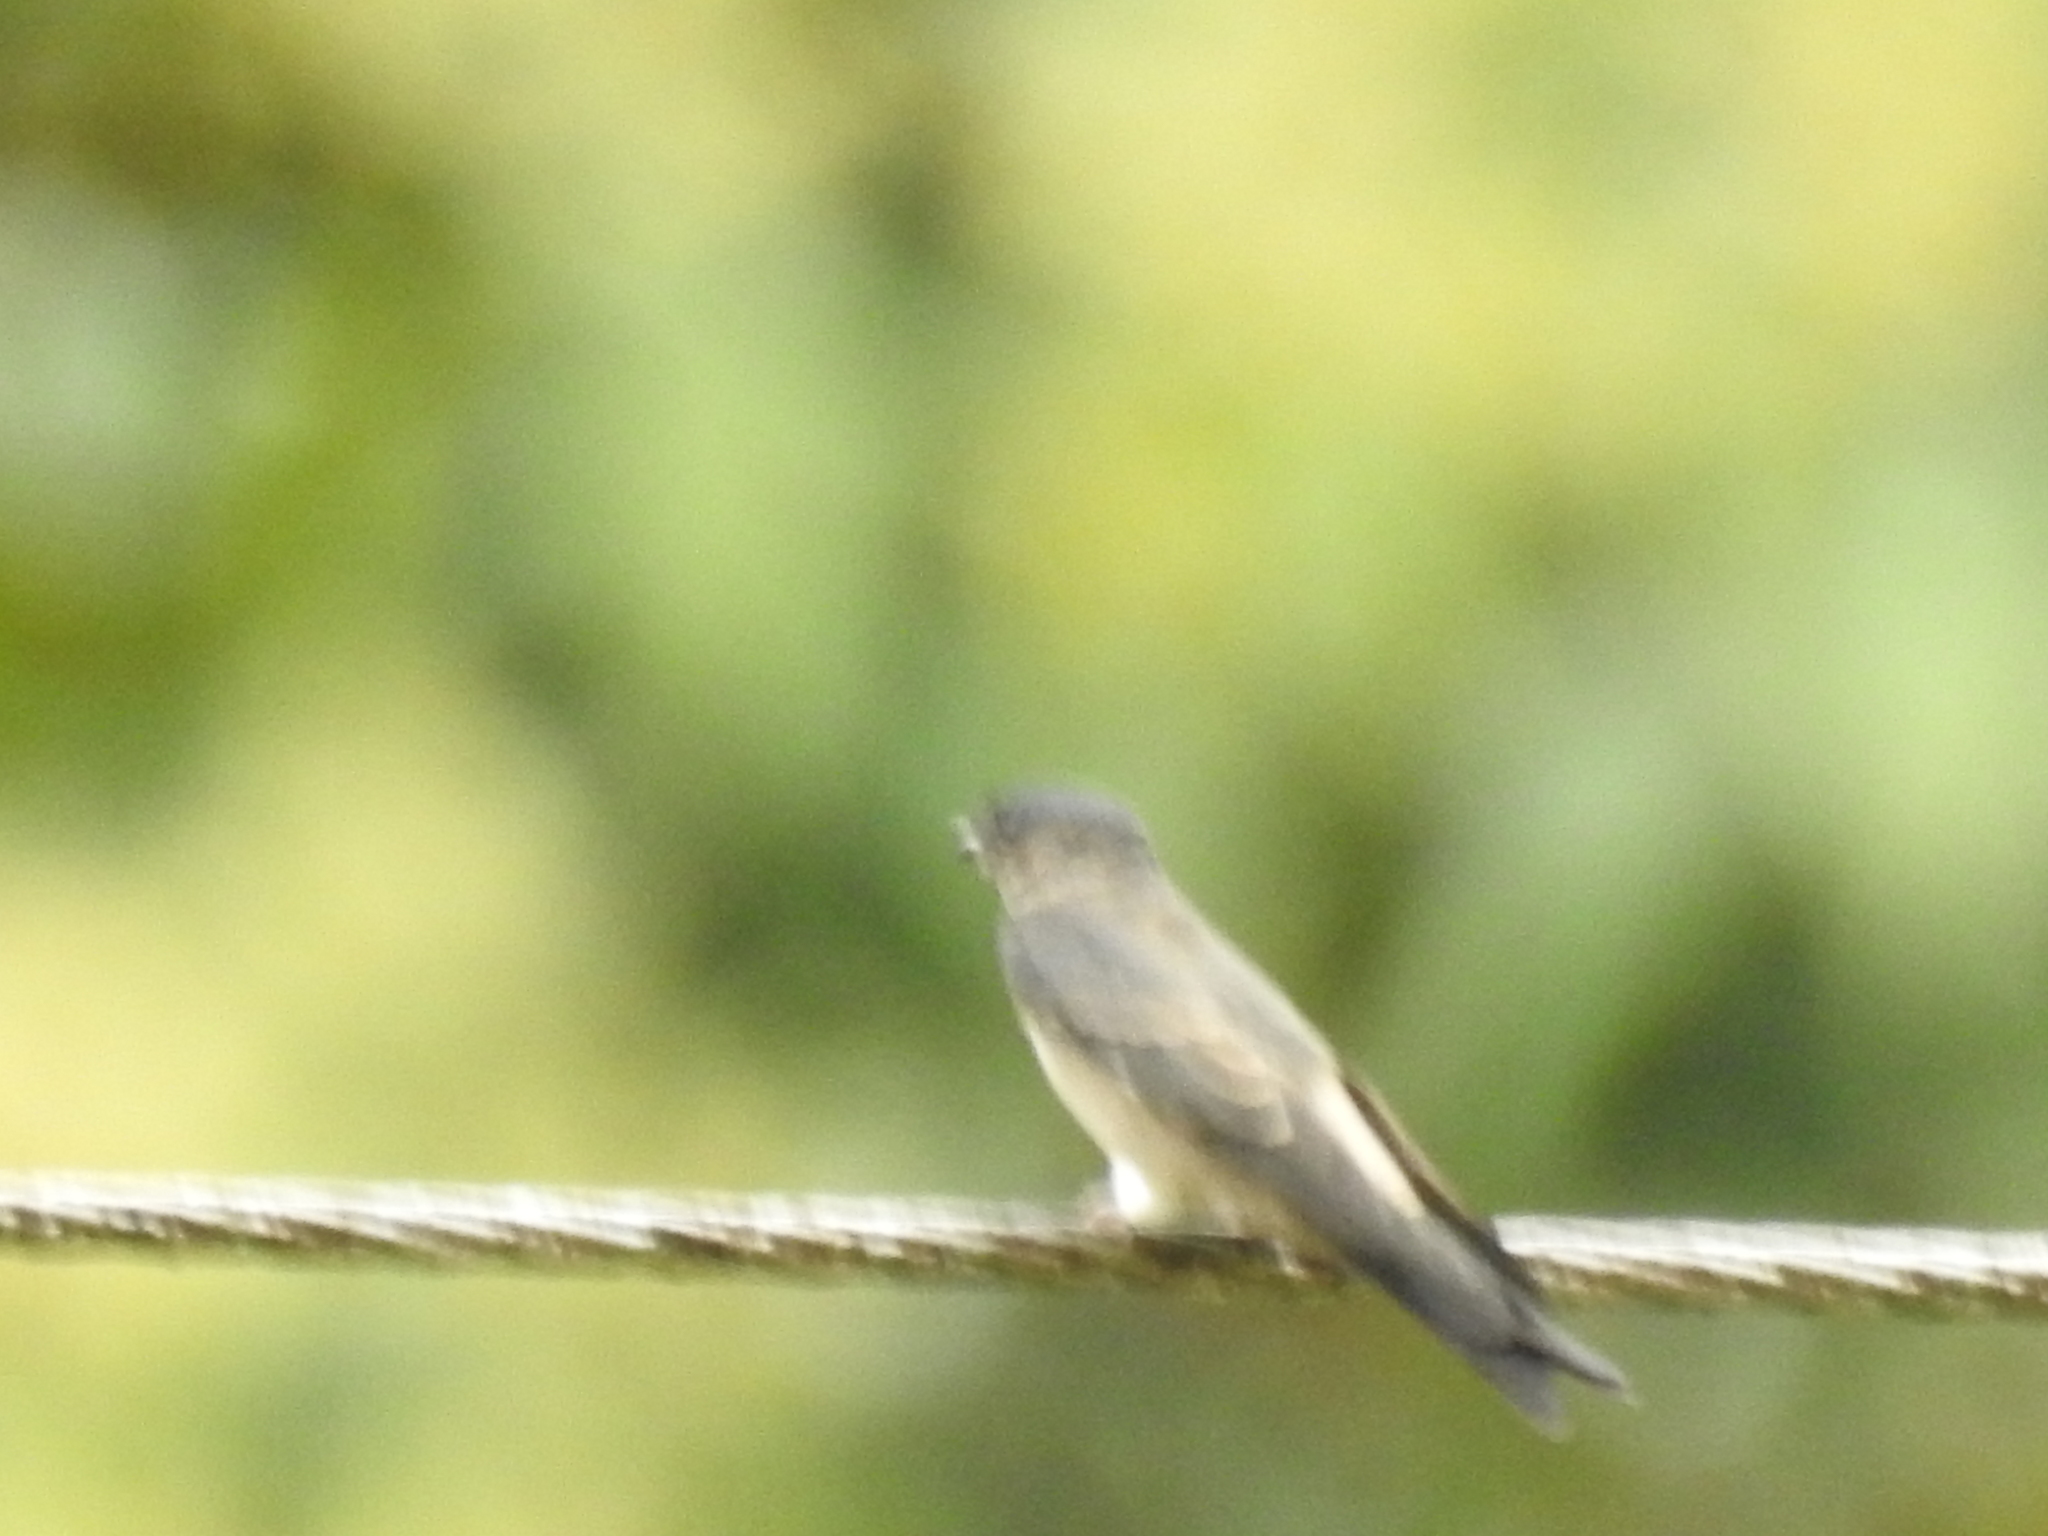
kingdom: Animalia
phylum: Chordata
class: Aves
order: Passeriformes
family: Hirundinidae
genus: Neochelidon
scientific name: Neochelidon tibialis
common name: White-thighed swallow
